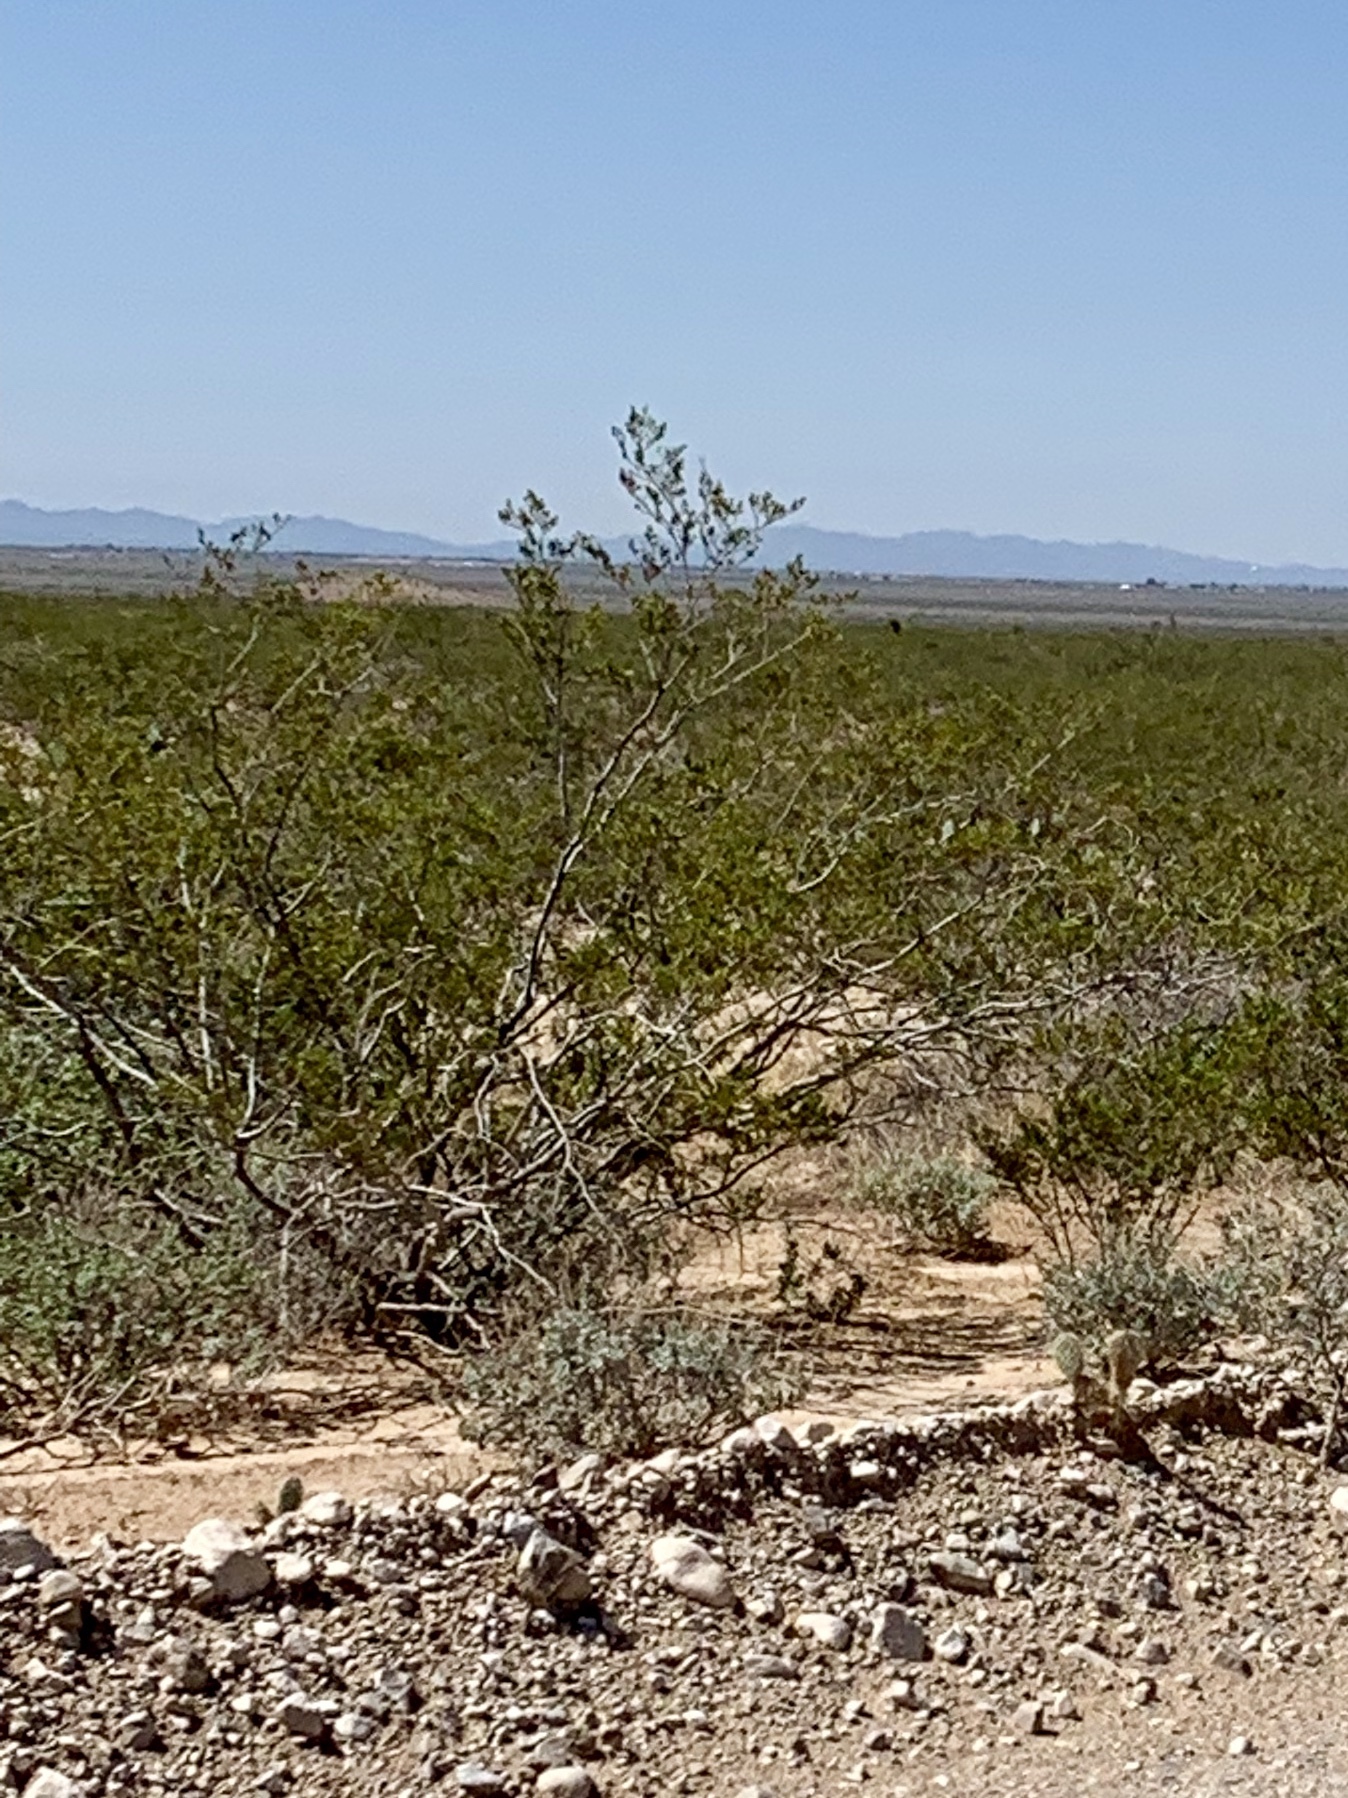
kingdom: Plantae
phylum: Tracheophyta
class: Magnoliopsida
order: Zygophyllales
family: Zygophyllaceae
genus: Larrea
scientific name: Larrea tridentata
